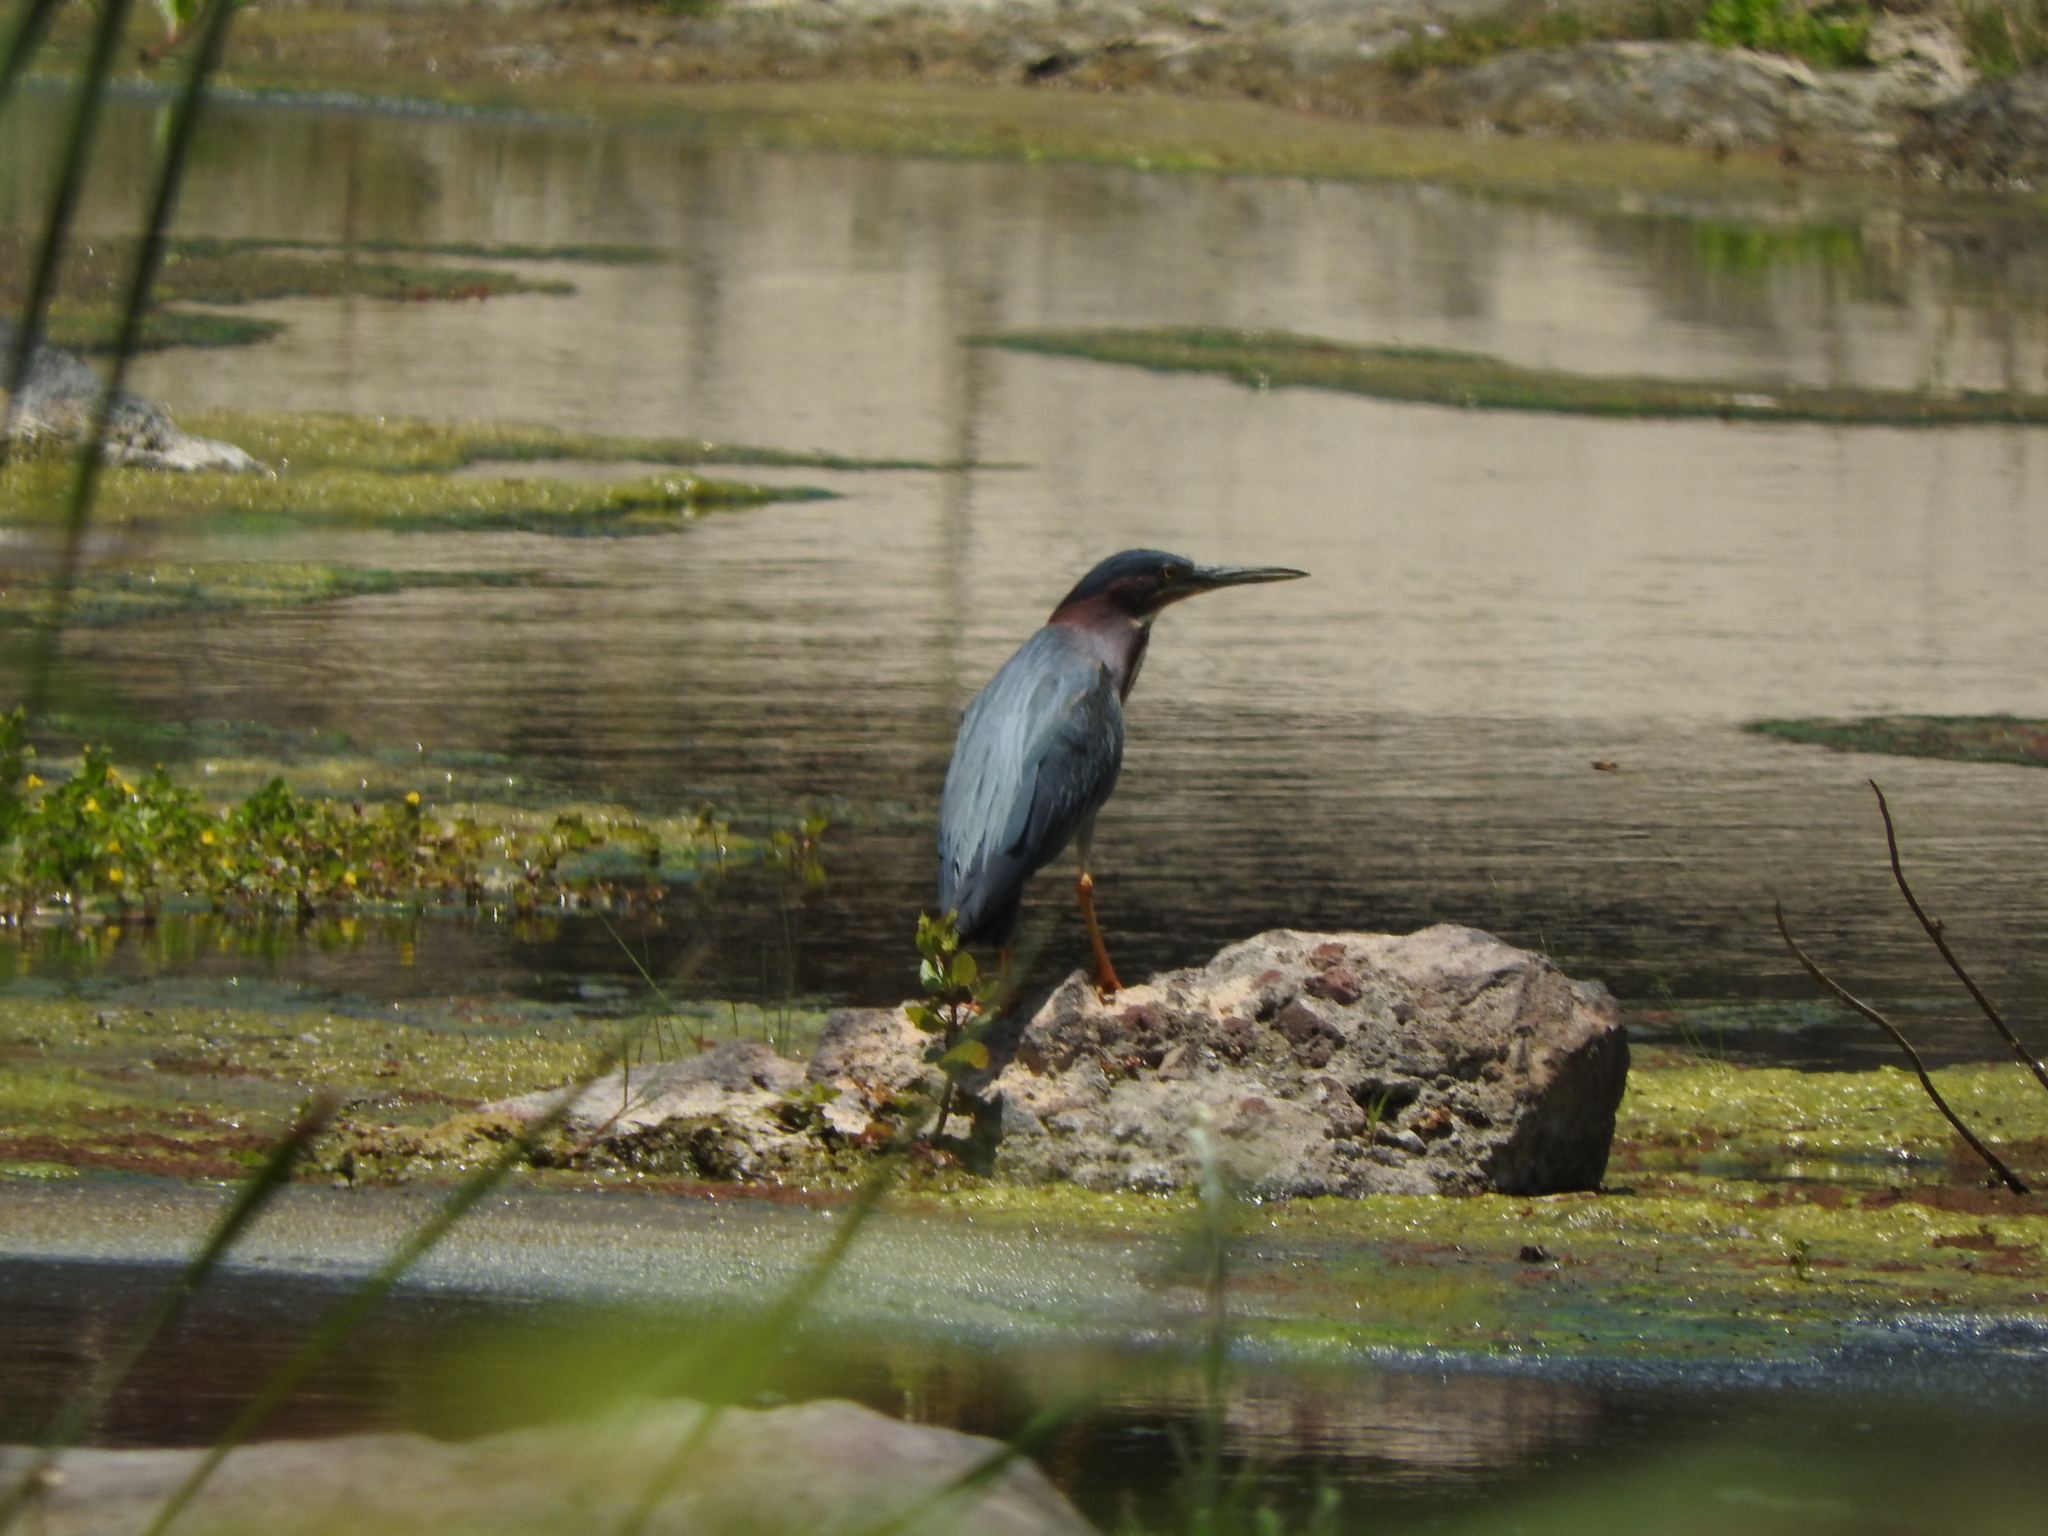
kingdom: Animalia
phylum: Chordata
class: Aves
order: Pelecaniformes
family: Ardeidae
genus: Butorides
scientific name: Butorides virescens
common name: Green heron
